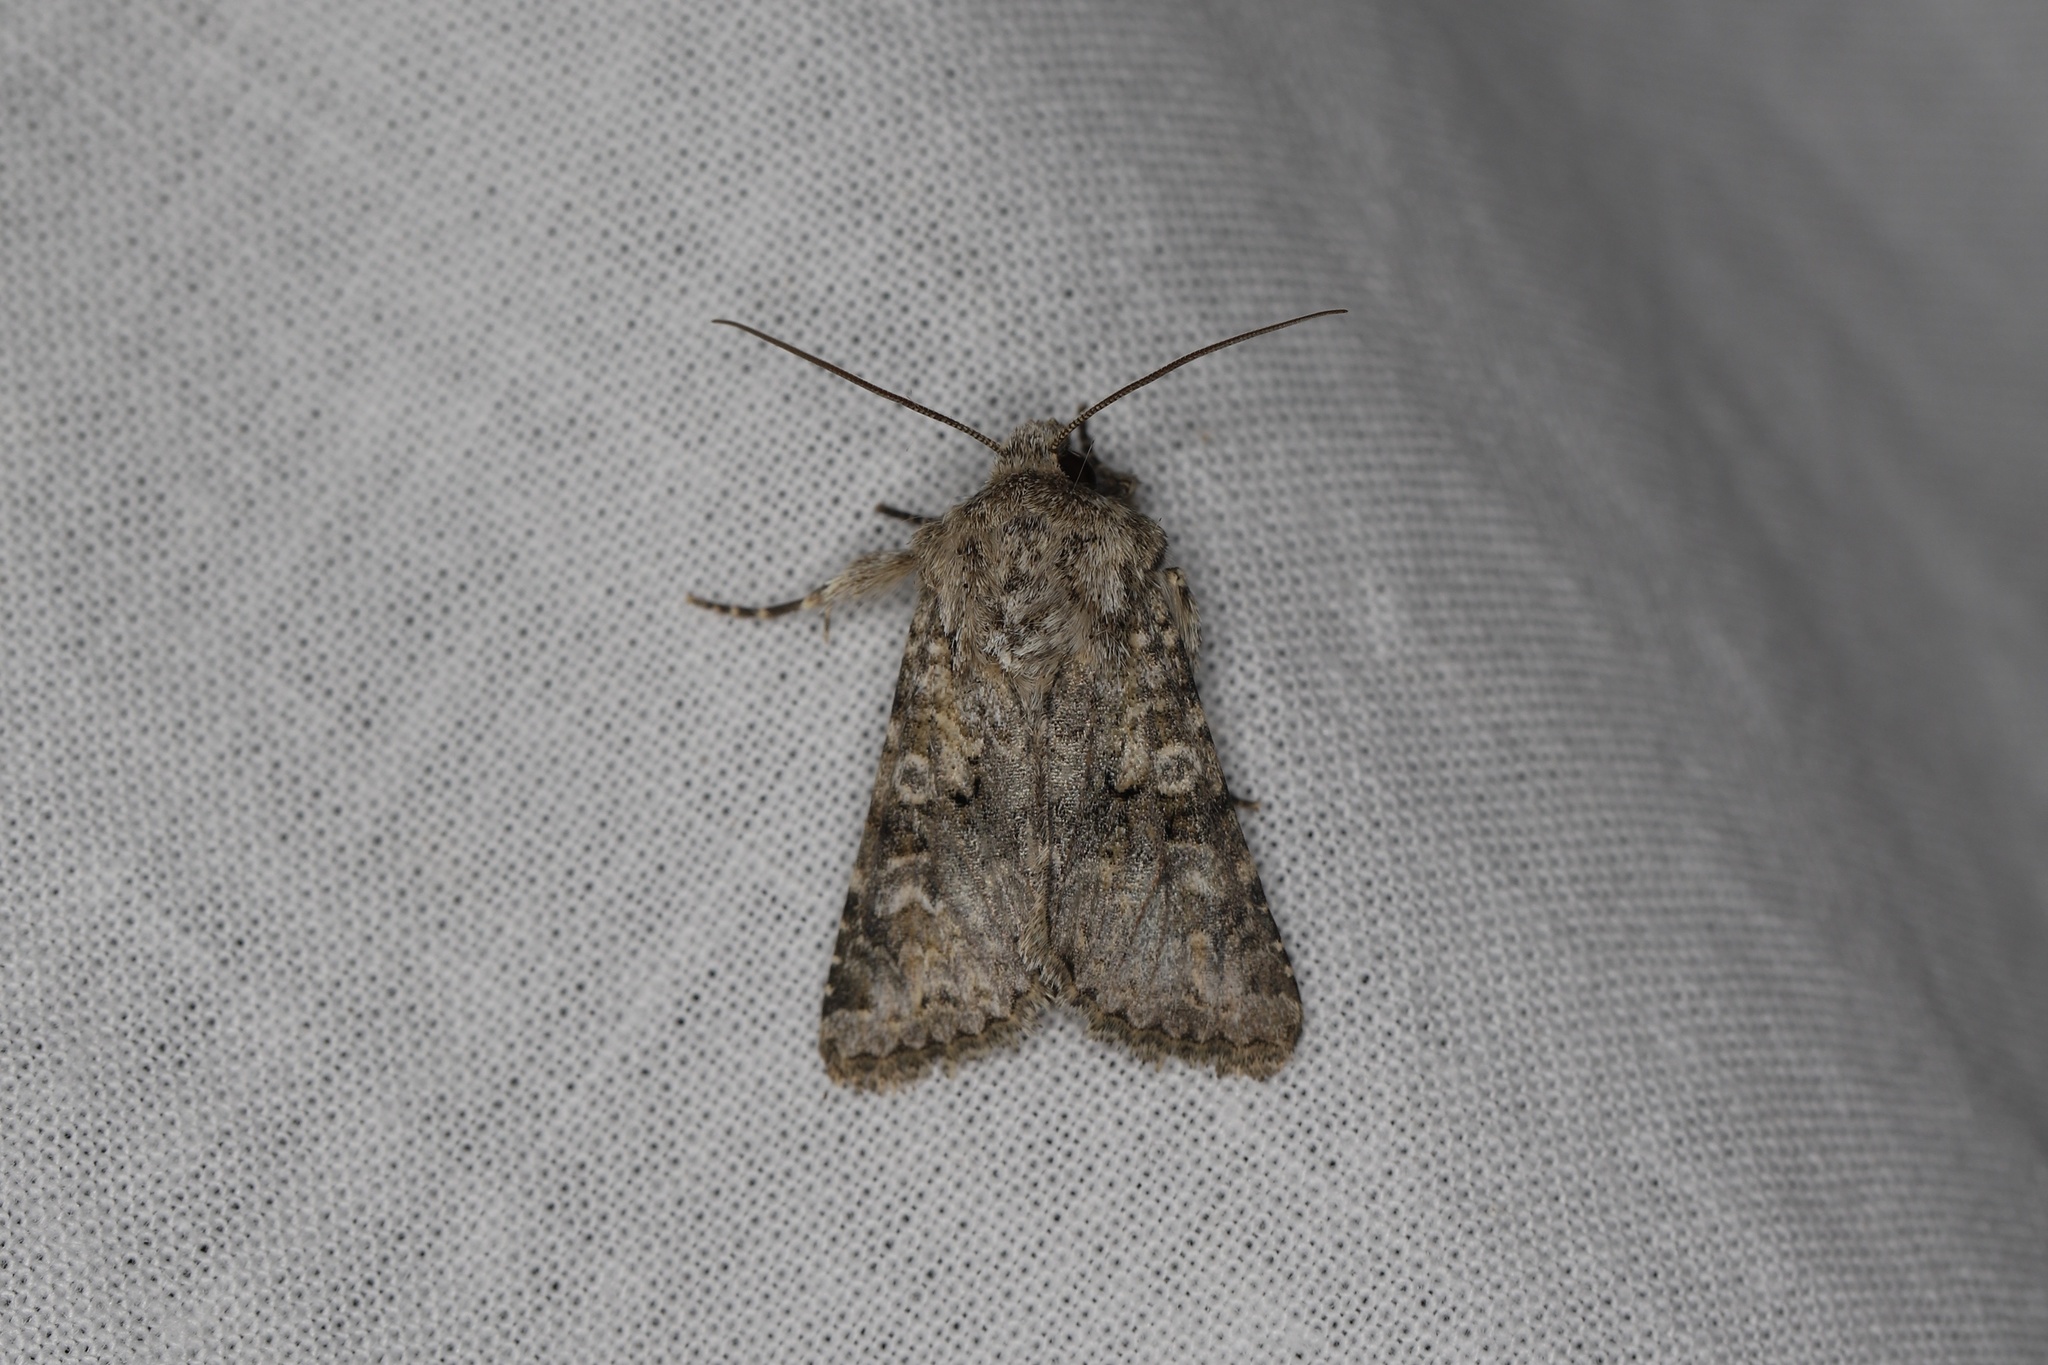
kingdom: Animalia
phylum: Arthropoda
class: Insecta
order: Lepidoptera
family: Noctuidae
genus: Hecatera
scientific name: Hecatera weissi
